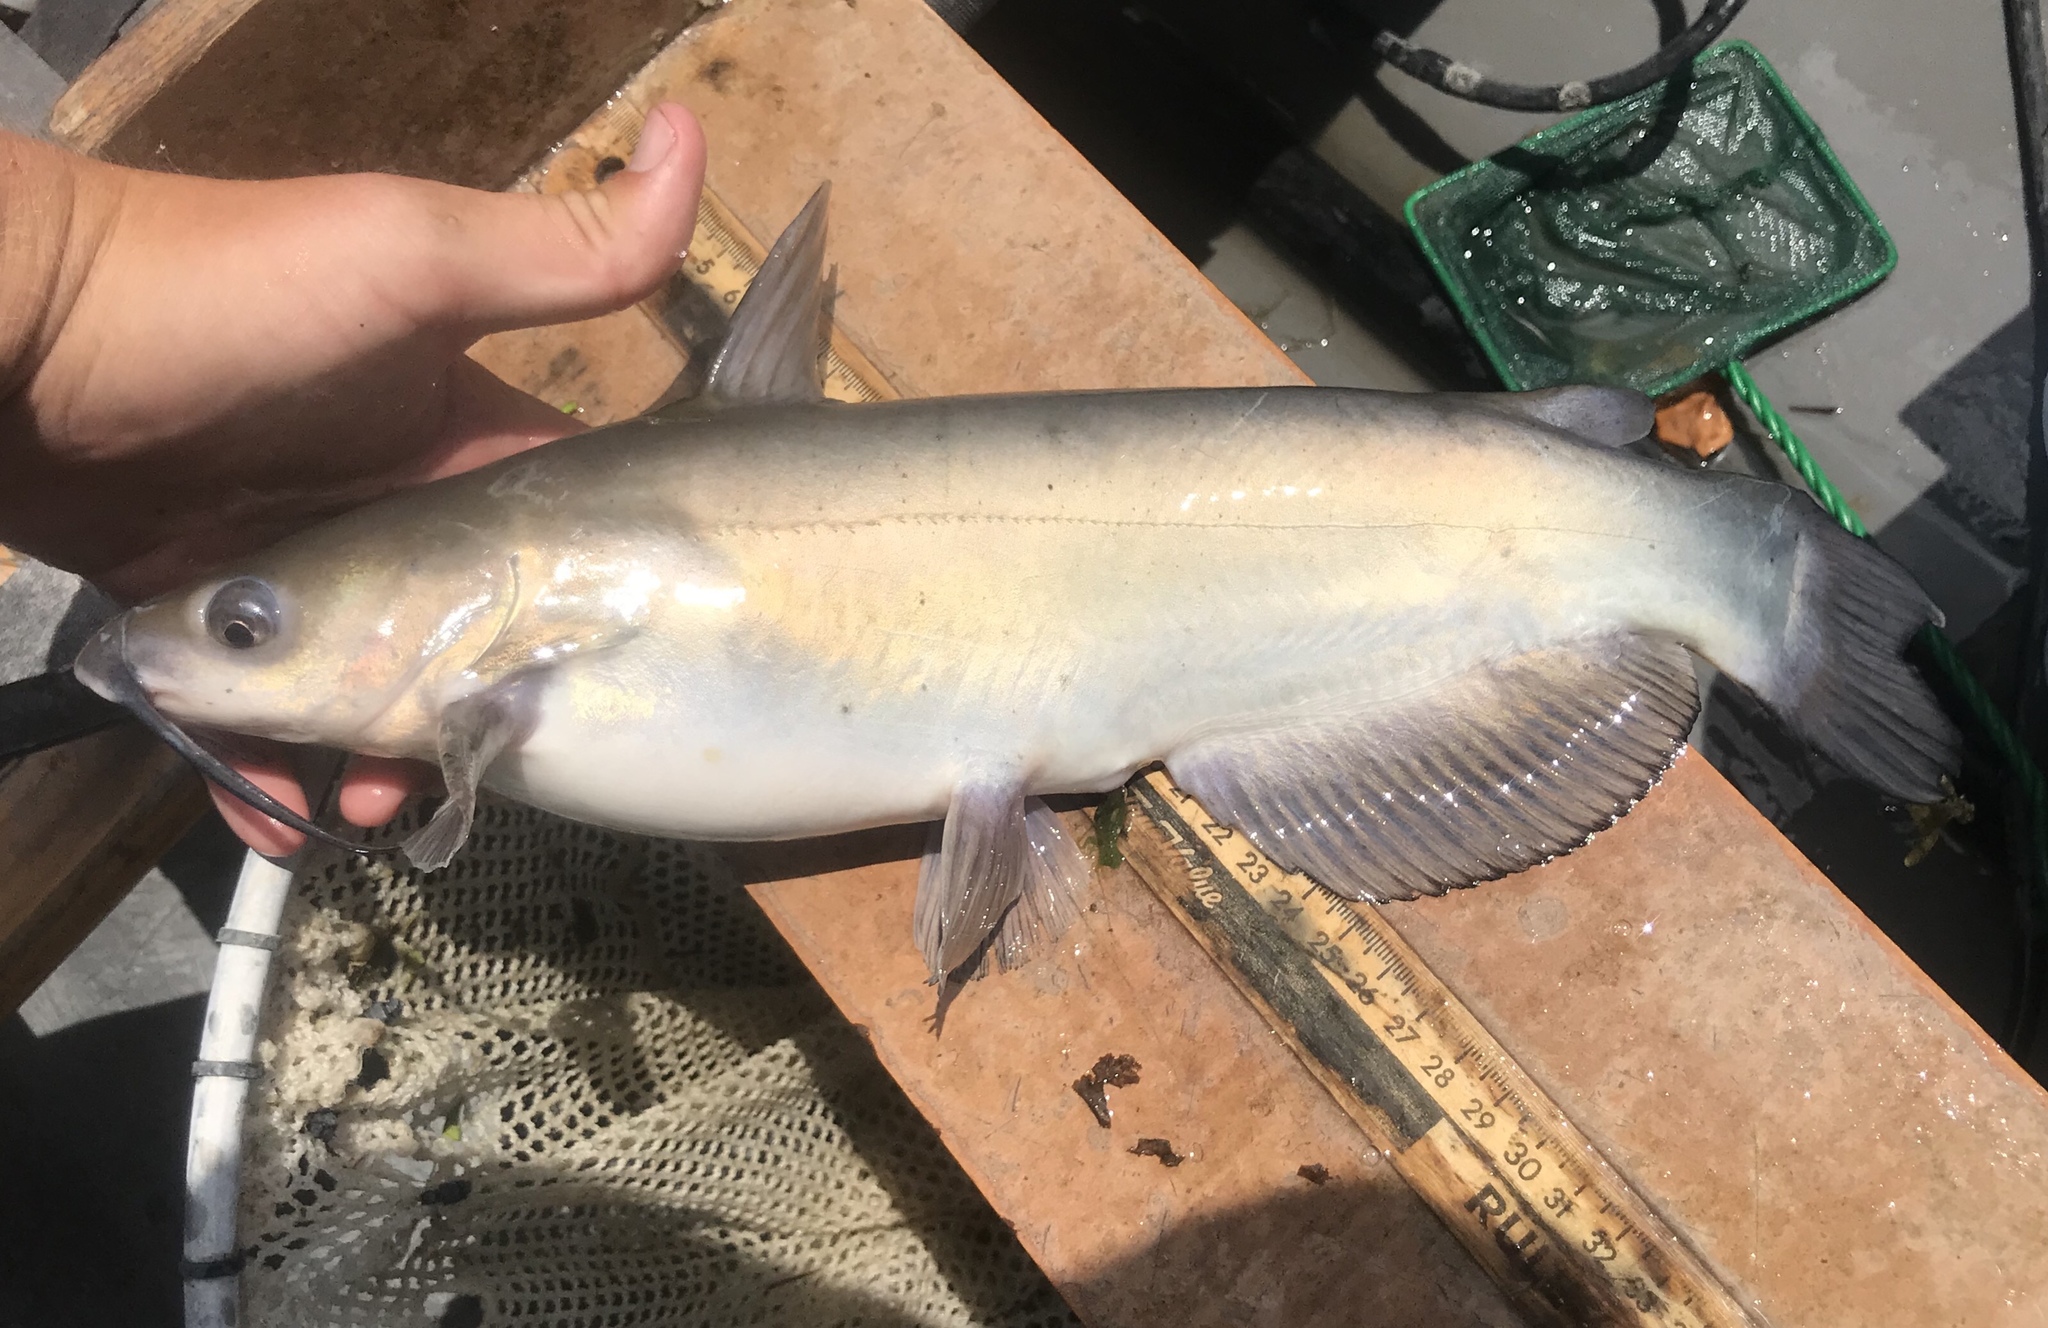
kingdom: Animalia
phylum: Chordata
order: Siluriformes
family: Ictaluridae
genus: Ictalurus
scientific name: Ictalurus punctatus
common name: Channel catfish
